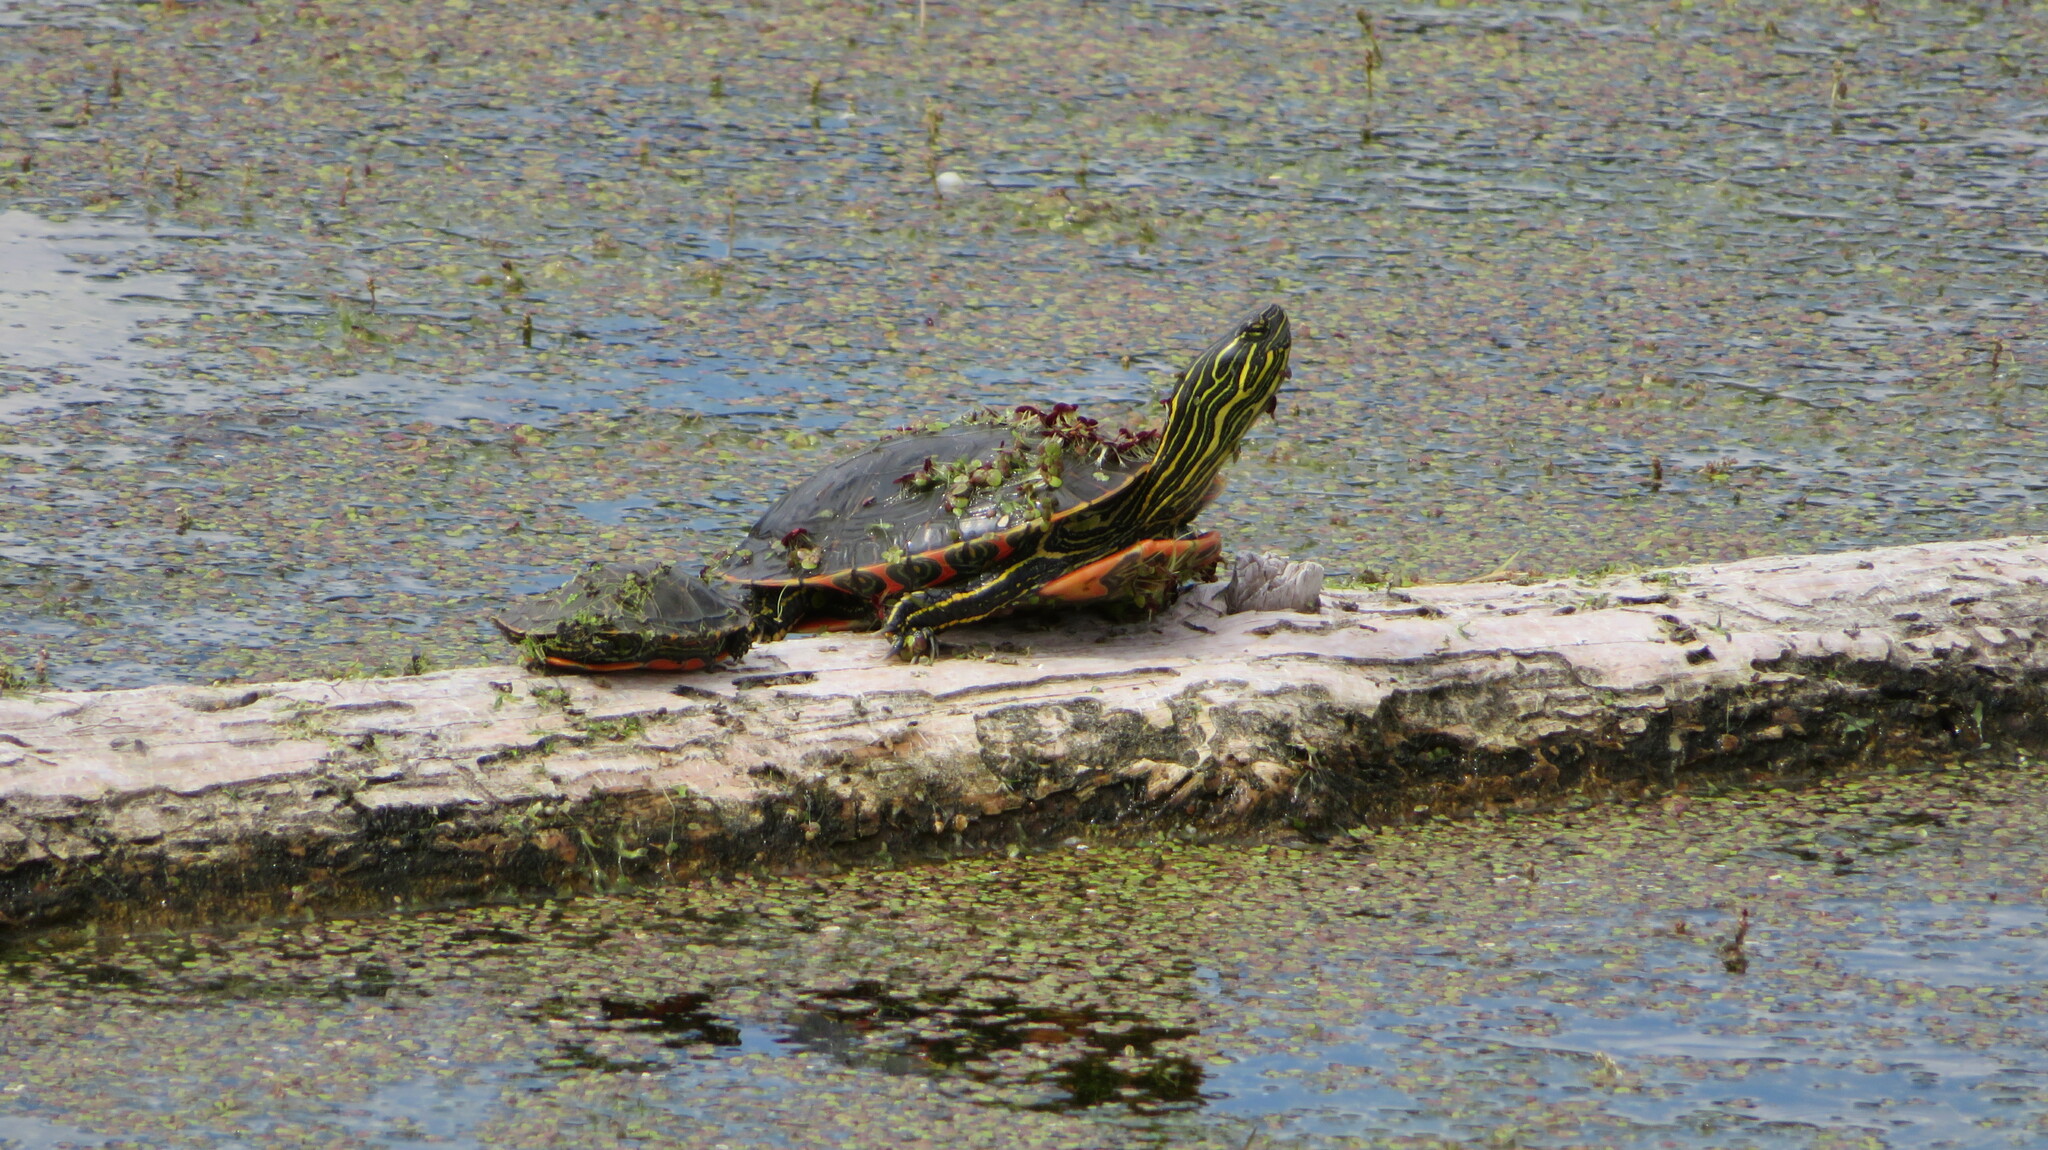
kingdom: Animalia
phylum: Chordata
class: Testudines
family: Emydidae
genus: Chrysemys
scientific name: Chrysemys picta
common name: Painted turtle
